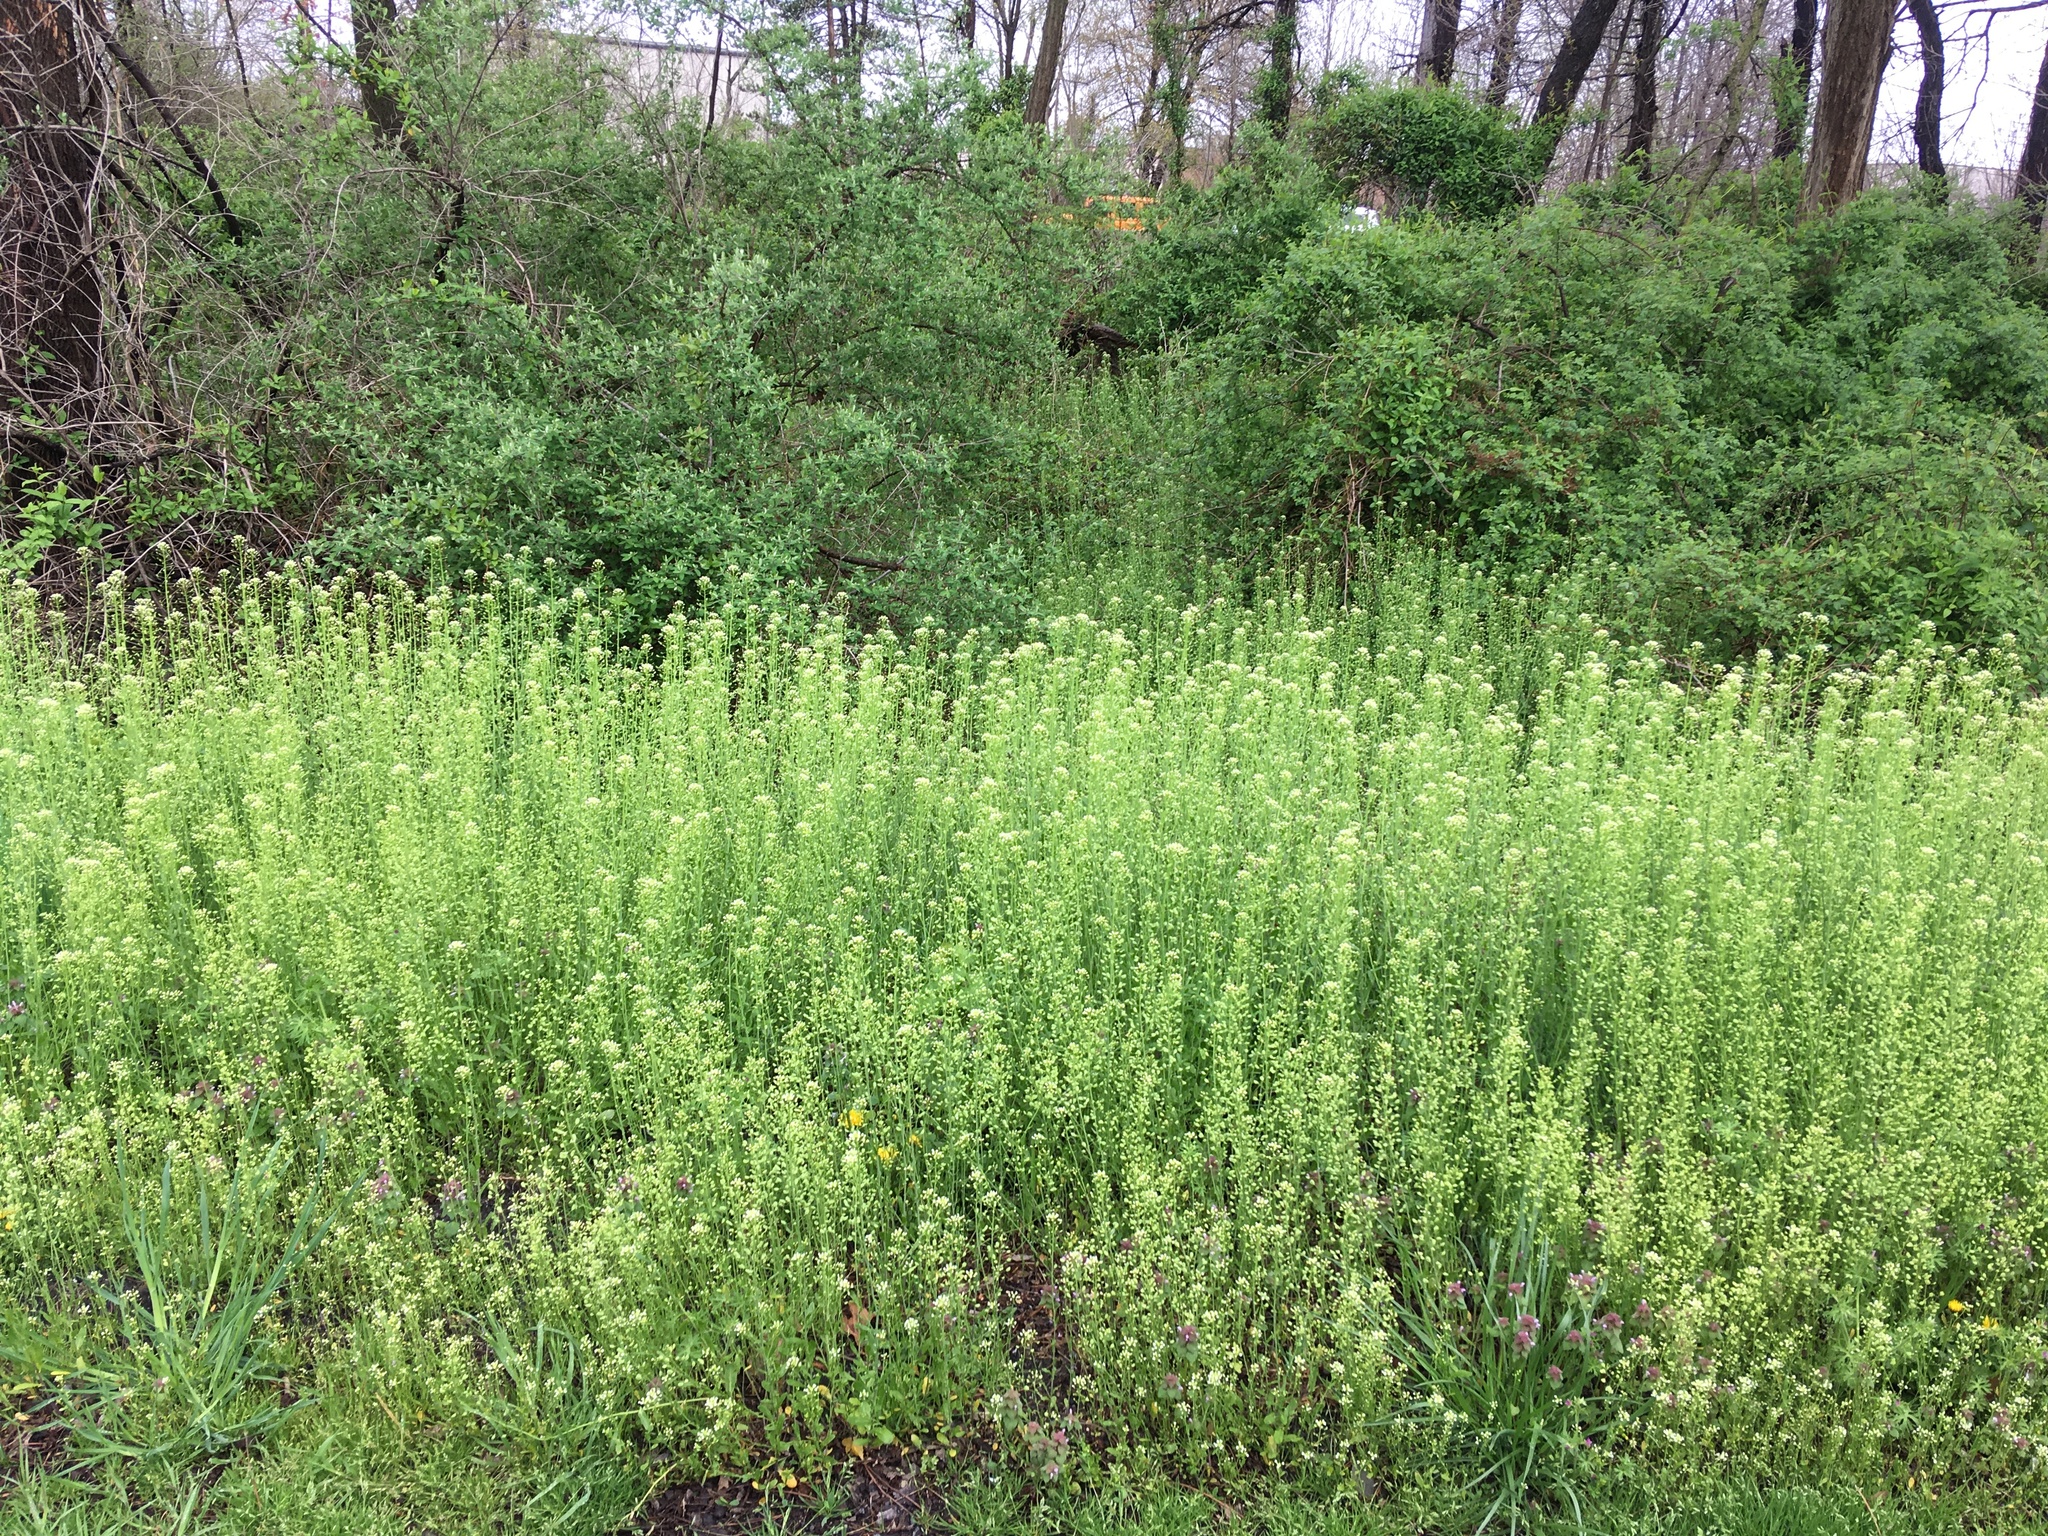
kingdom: Plantae
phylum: Tracheophyta
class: Magnoliopsida
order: Brassicales
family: Brassicaceae
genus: Mummenhoffia
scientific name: Mummenhoffia alliacea
